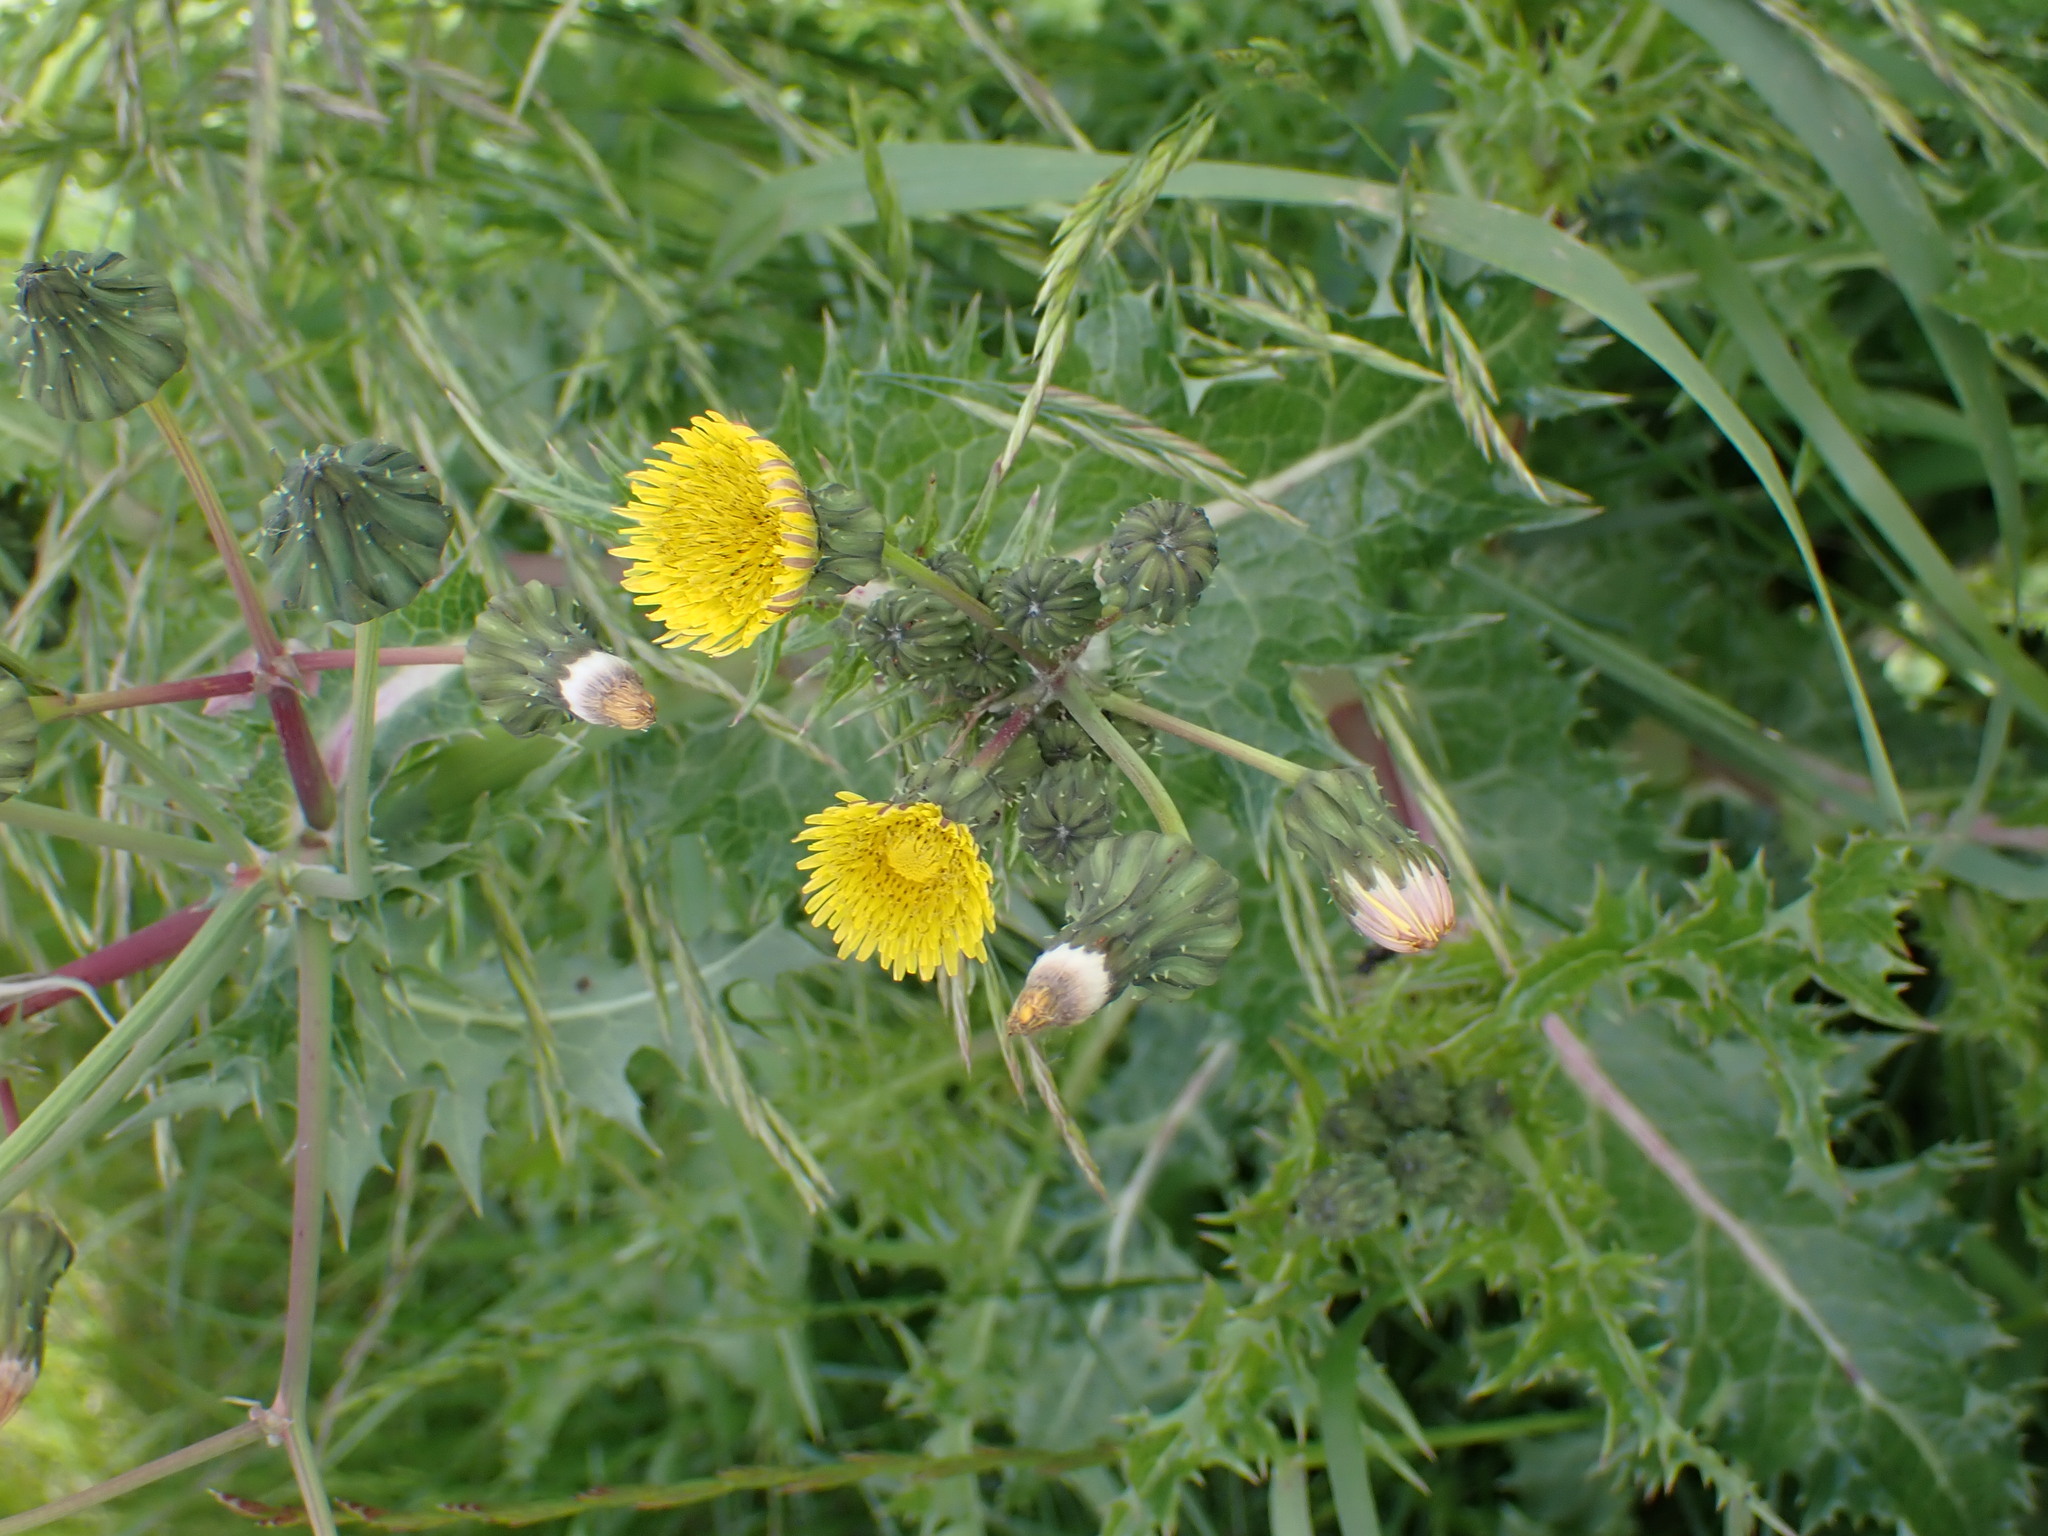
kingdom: Plantae
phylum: Tracheophyta
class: Magnoliopsida
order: Asterales
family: Asteraceae
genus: Sonchus
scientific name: Sonchus asper
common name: Prickly sow-thistle
